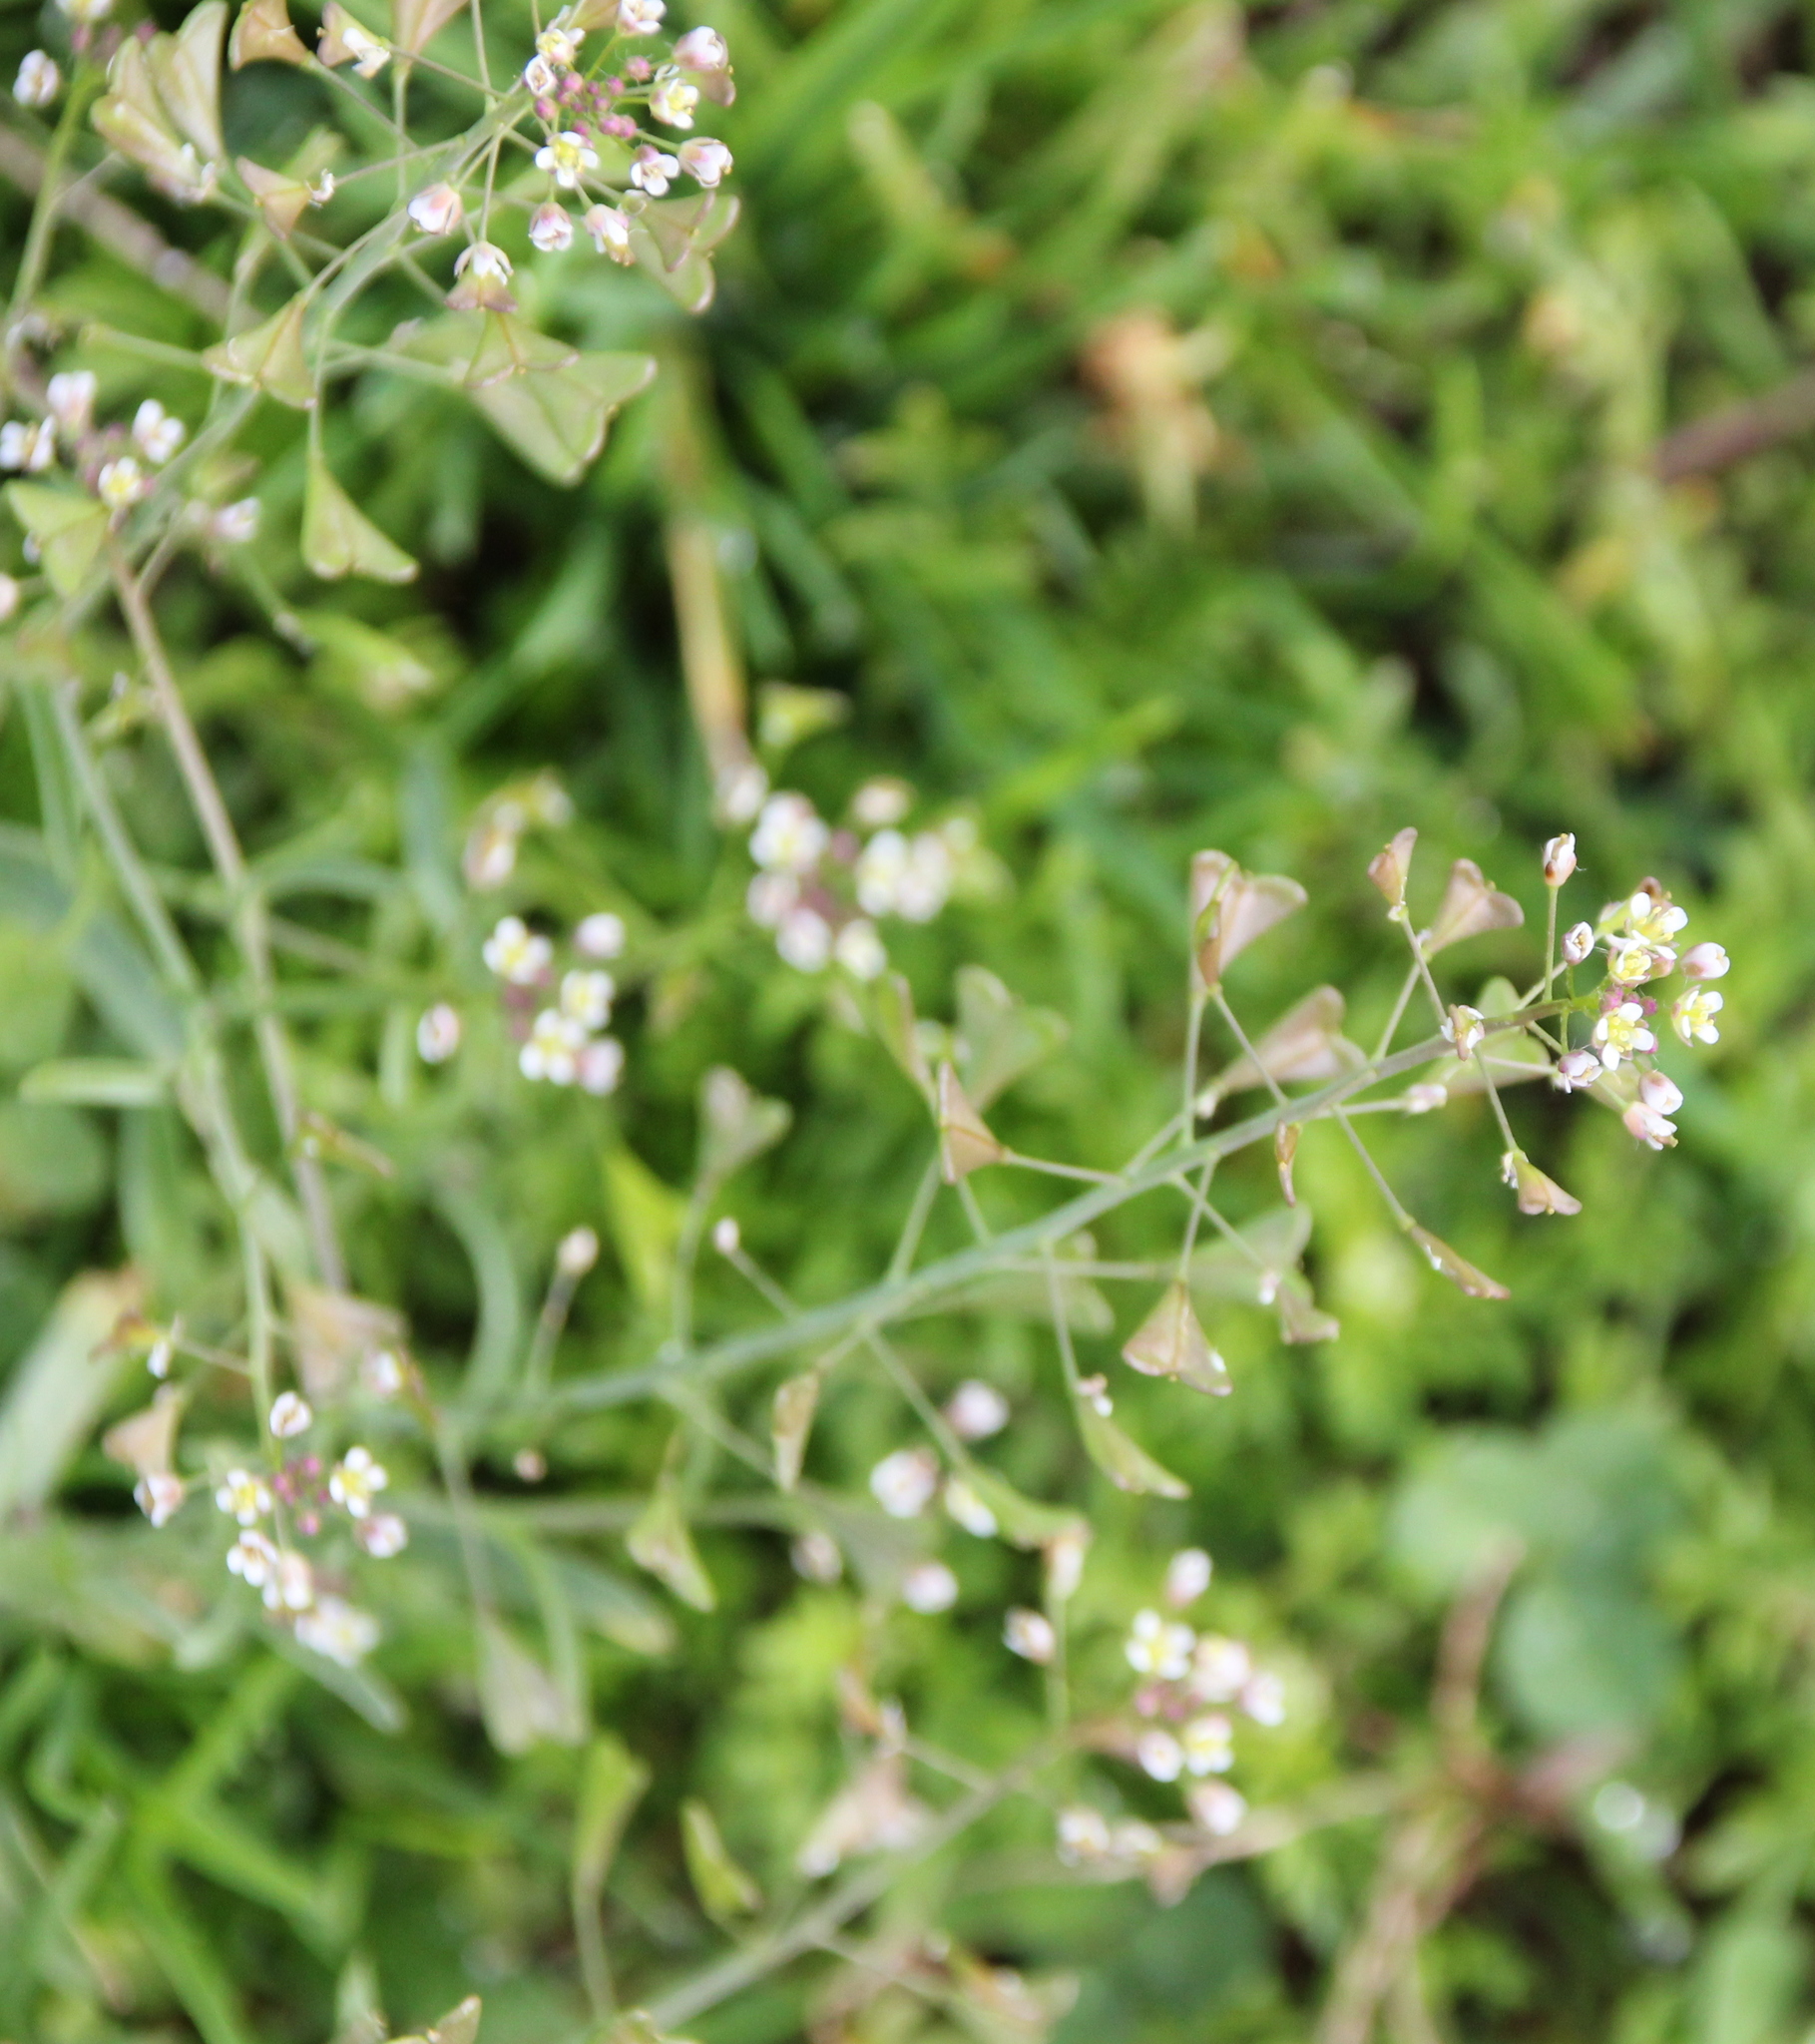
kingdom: Plantae
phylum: Tracheophyta
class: Magnoliopsida
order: Brassicales
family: Brassicaceae
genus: Capsella
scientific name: Capsella bursa-pastoris
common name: Shepherd's purse
